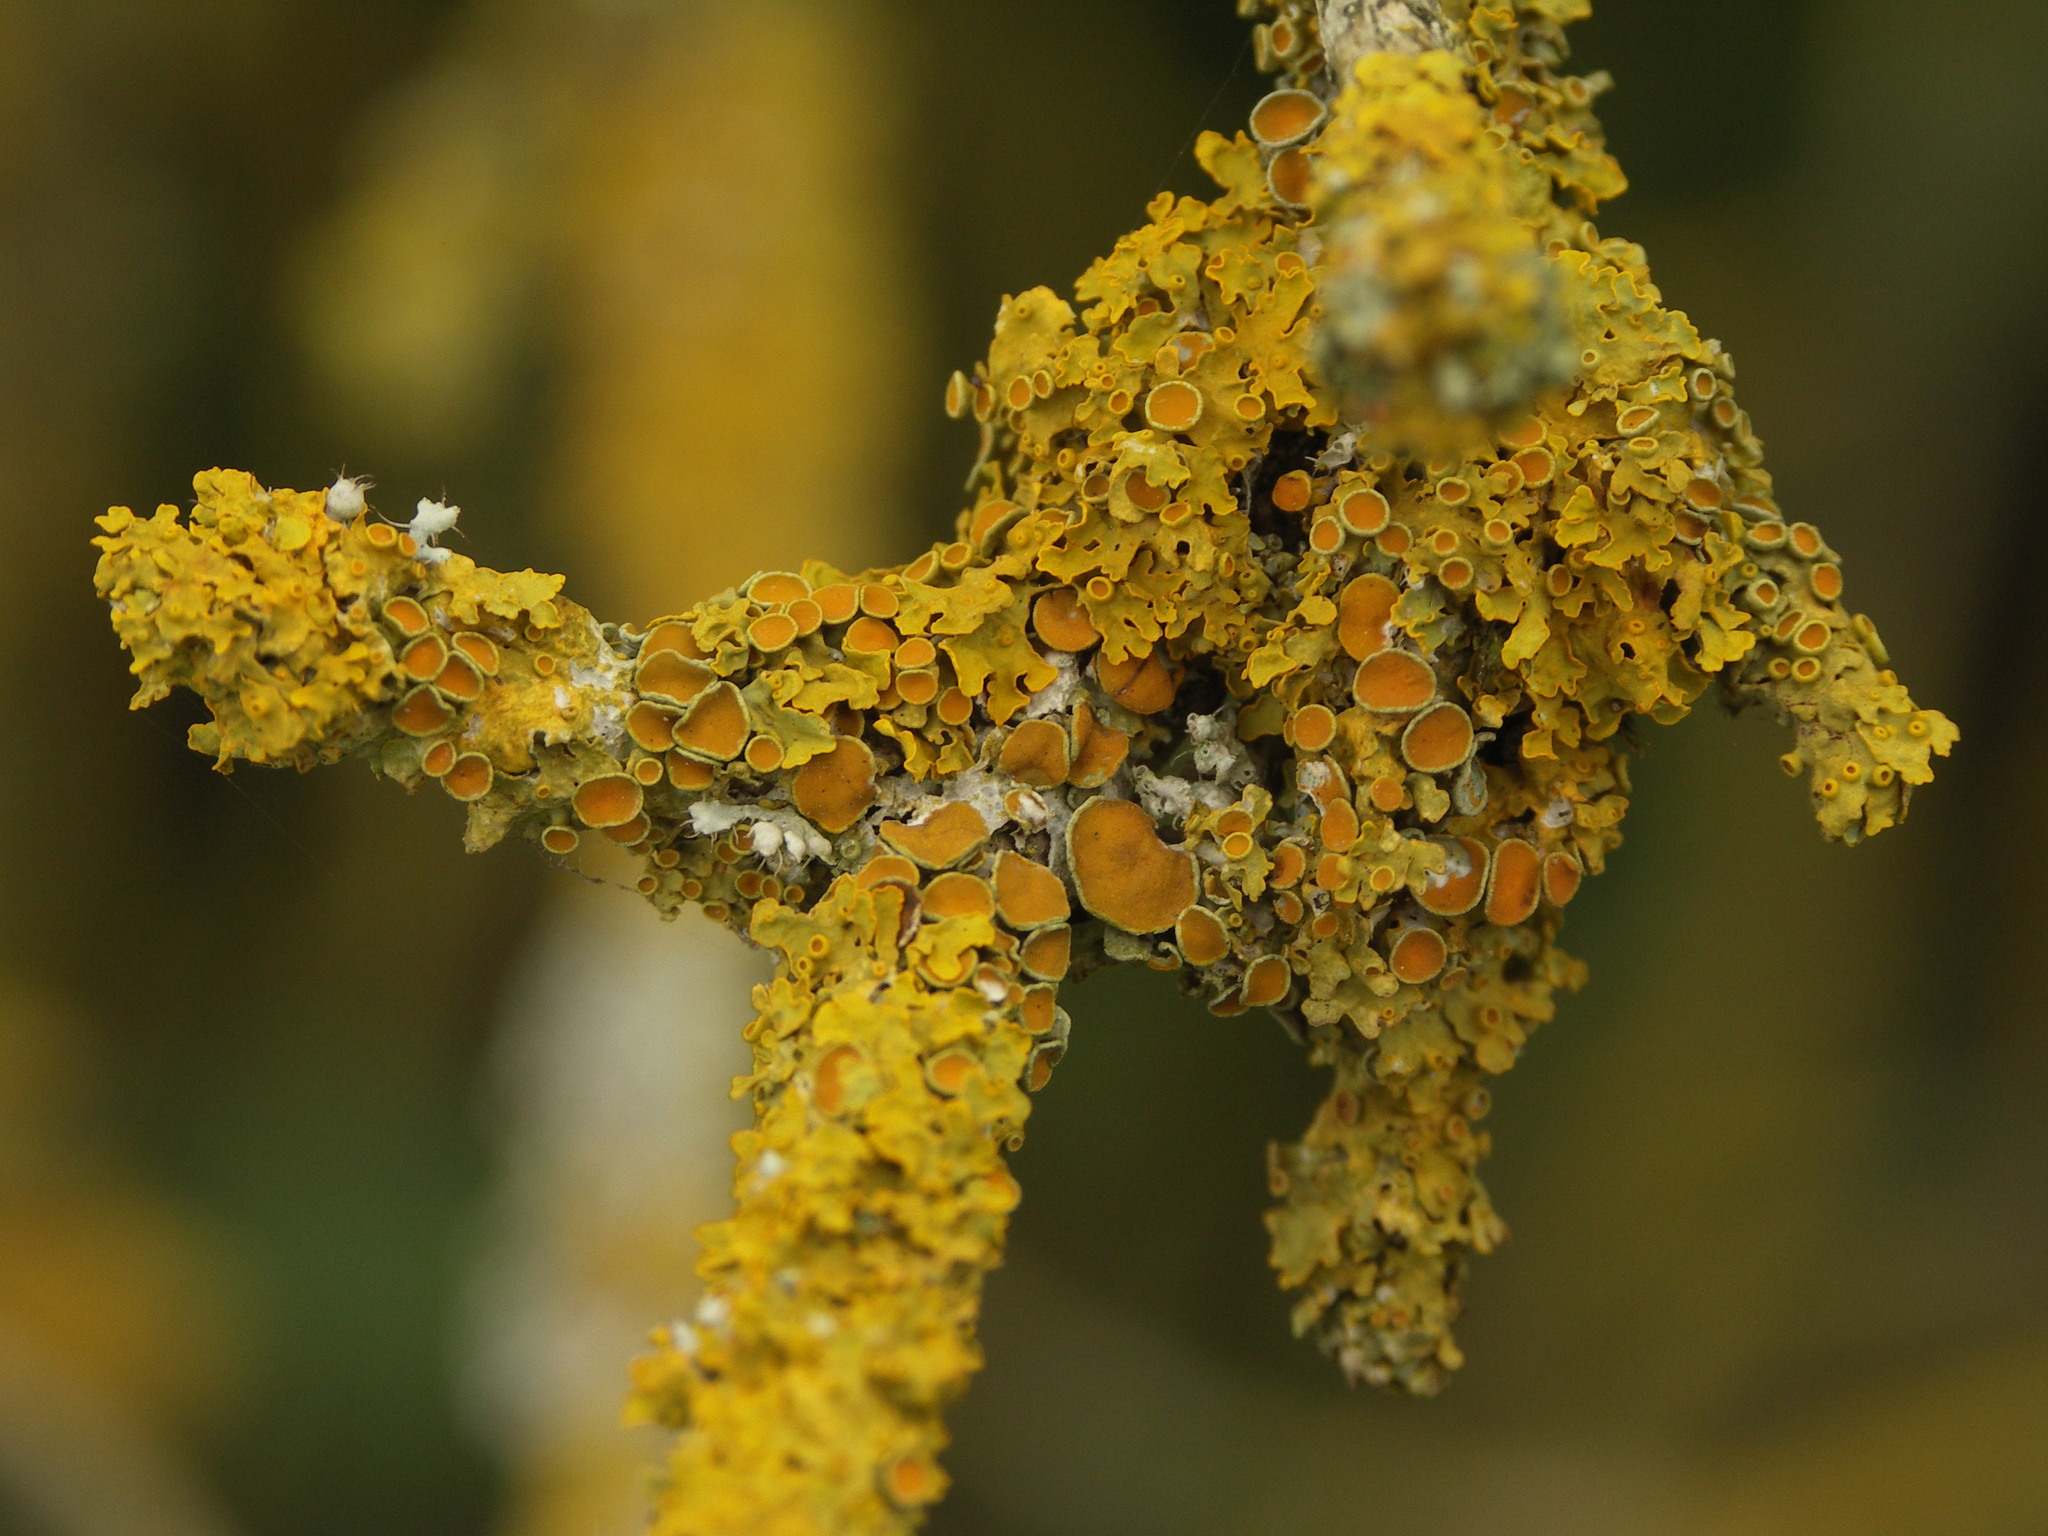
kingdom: Fungi
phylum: Ascomycota
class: Lecanoromycetes
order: Teloschistales
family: Teloschistaceae
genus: Xanthoria
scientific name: Xanthoria parietina
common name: Common orange lichen
